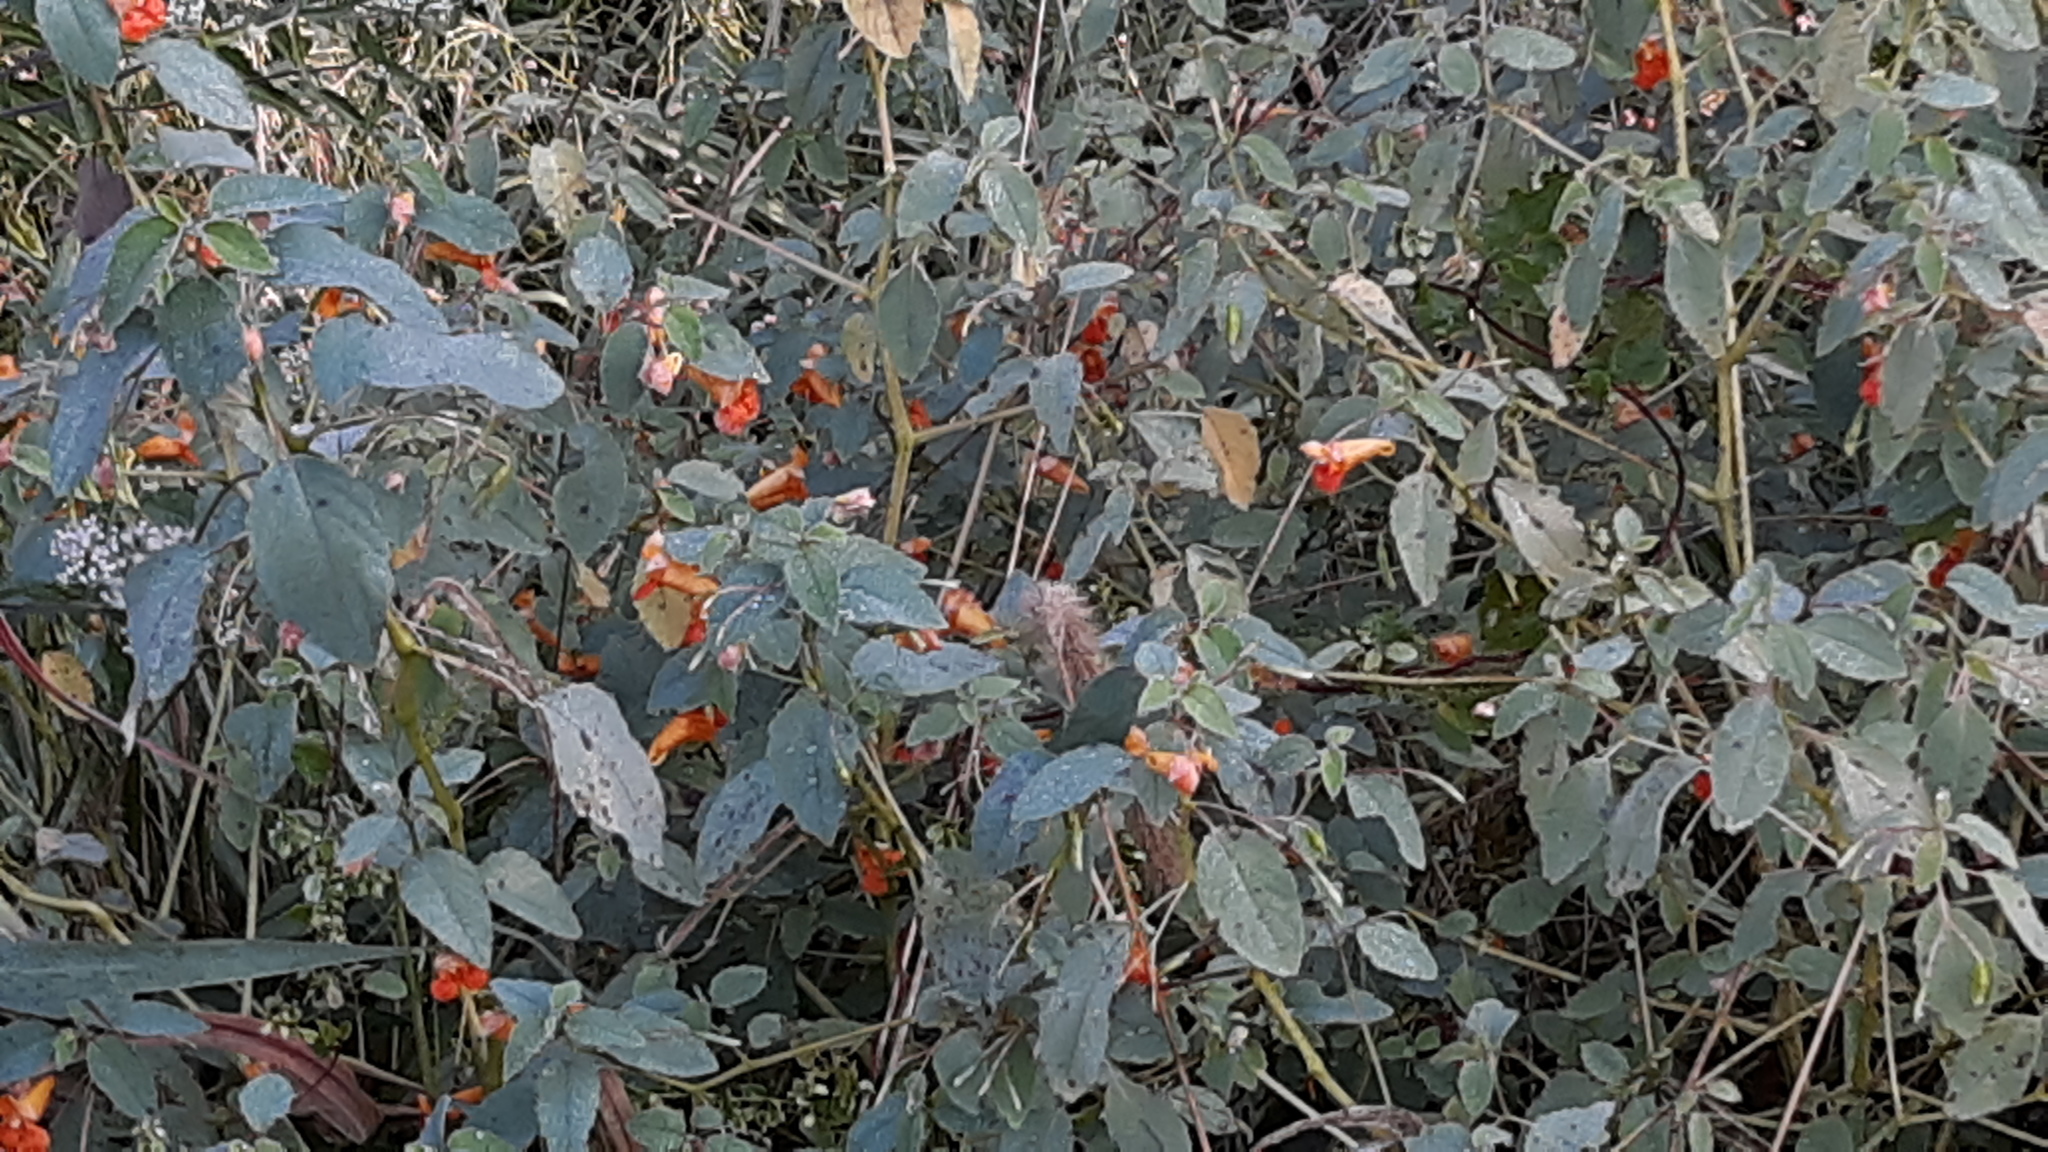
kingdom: Plantae
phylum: Tracheophyta
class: Magnoliopsida
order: Ericales
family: Balsaminaceae
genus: Impatiens
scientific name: Impatiens capensis
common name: Orange balsam
